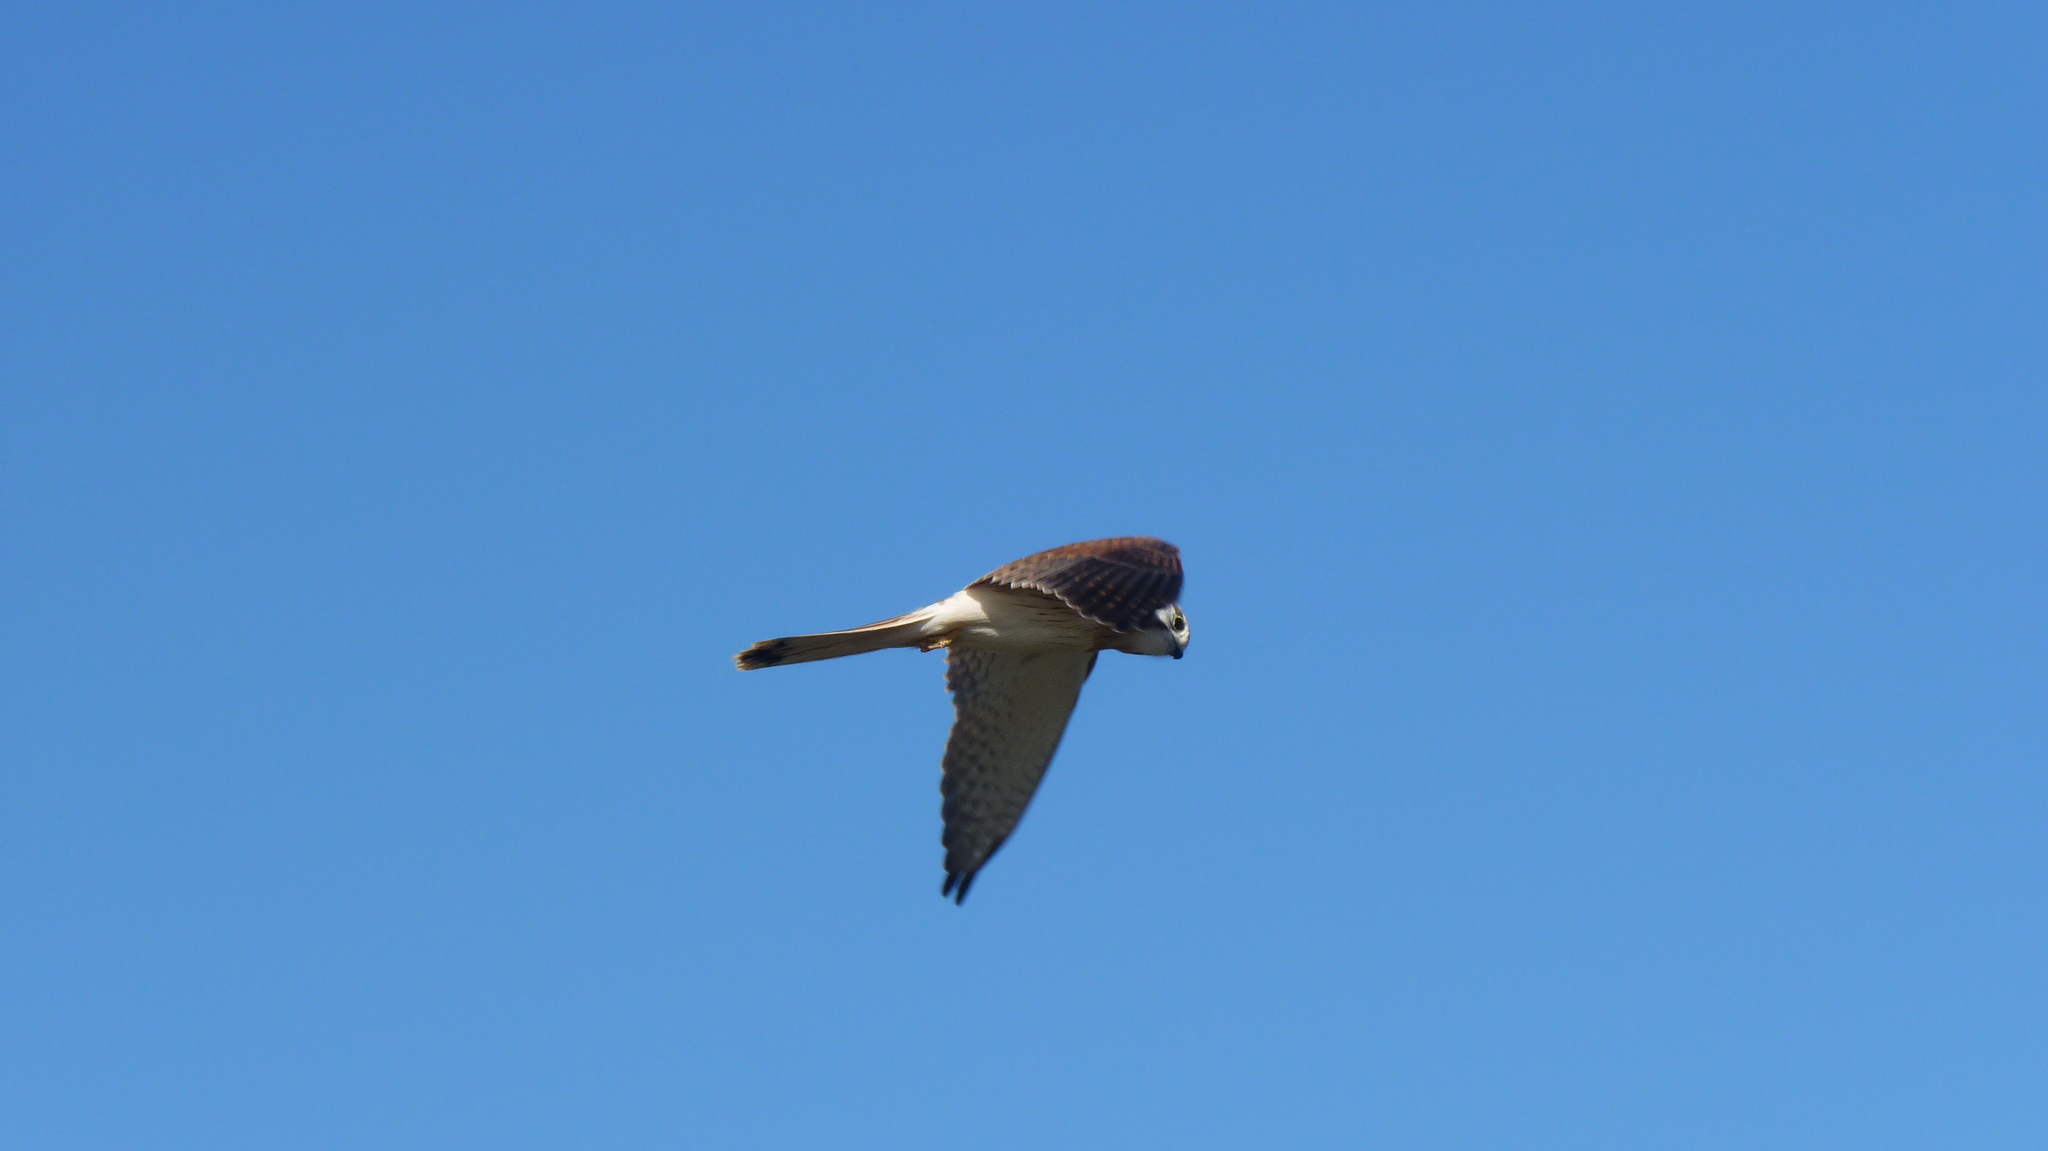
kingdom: Animalia
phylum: Chordata
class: Aves
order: Falconiformes
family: Falconidae
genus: Falco
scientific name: Falco cenchroides
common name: Nankeen kestrel
